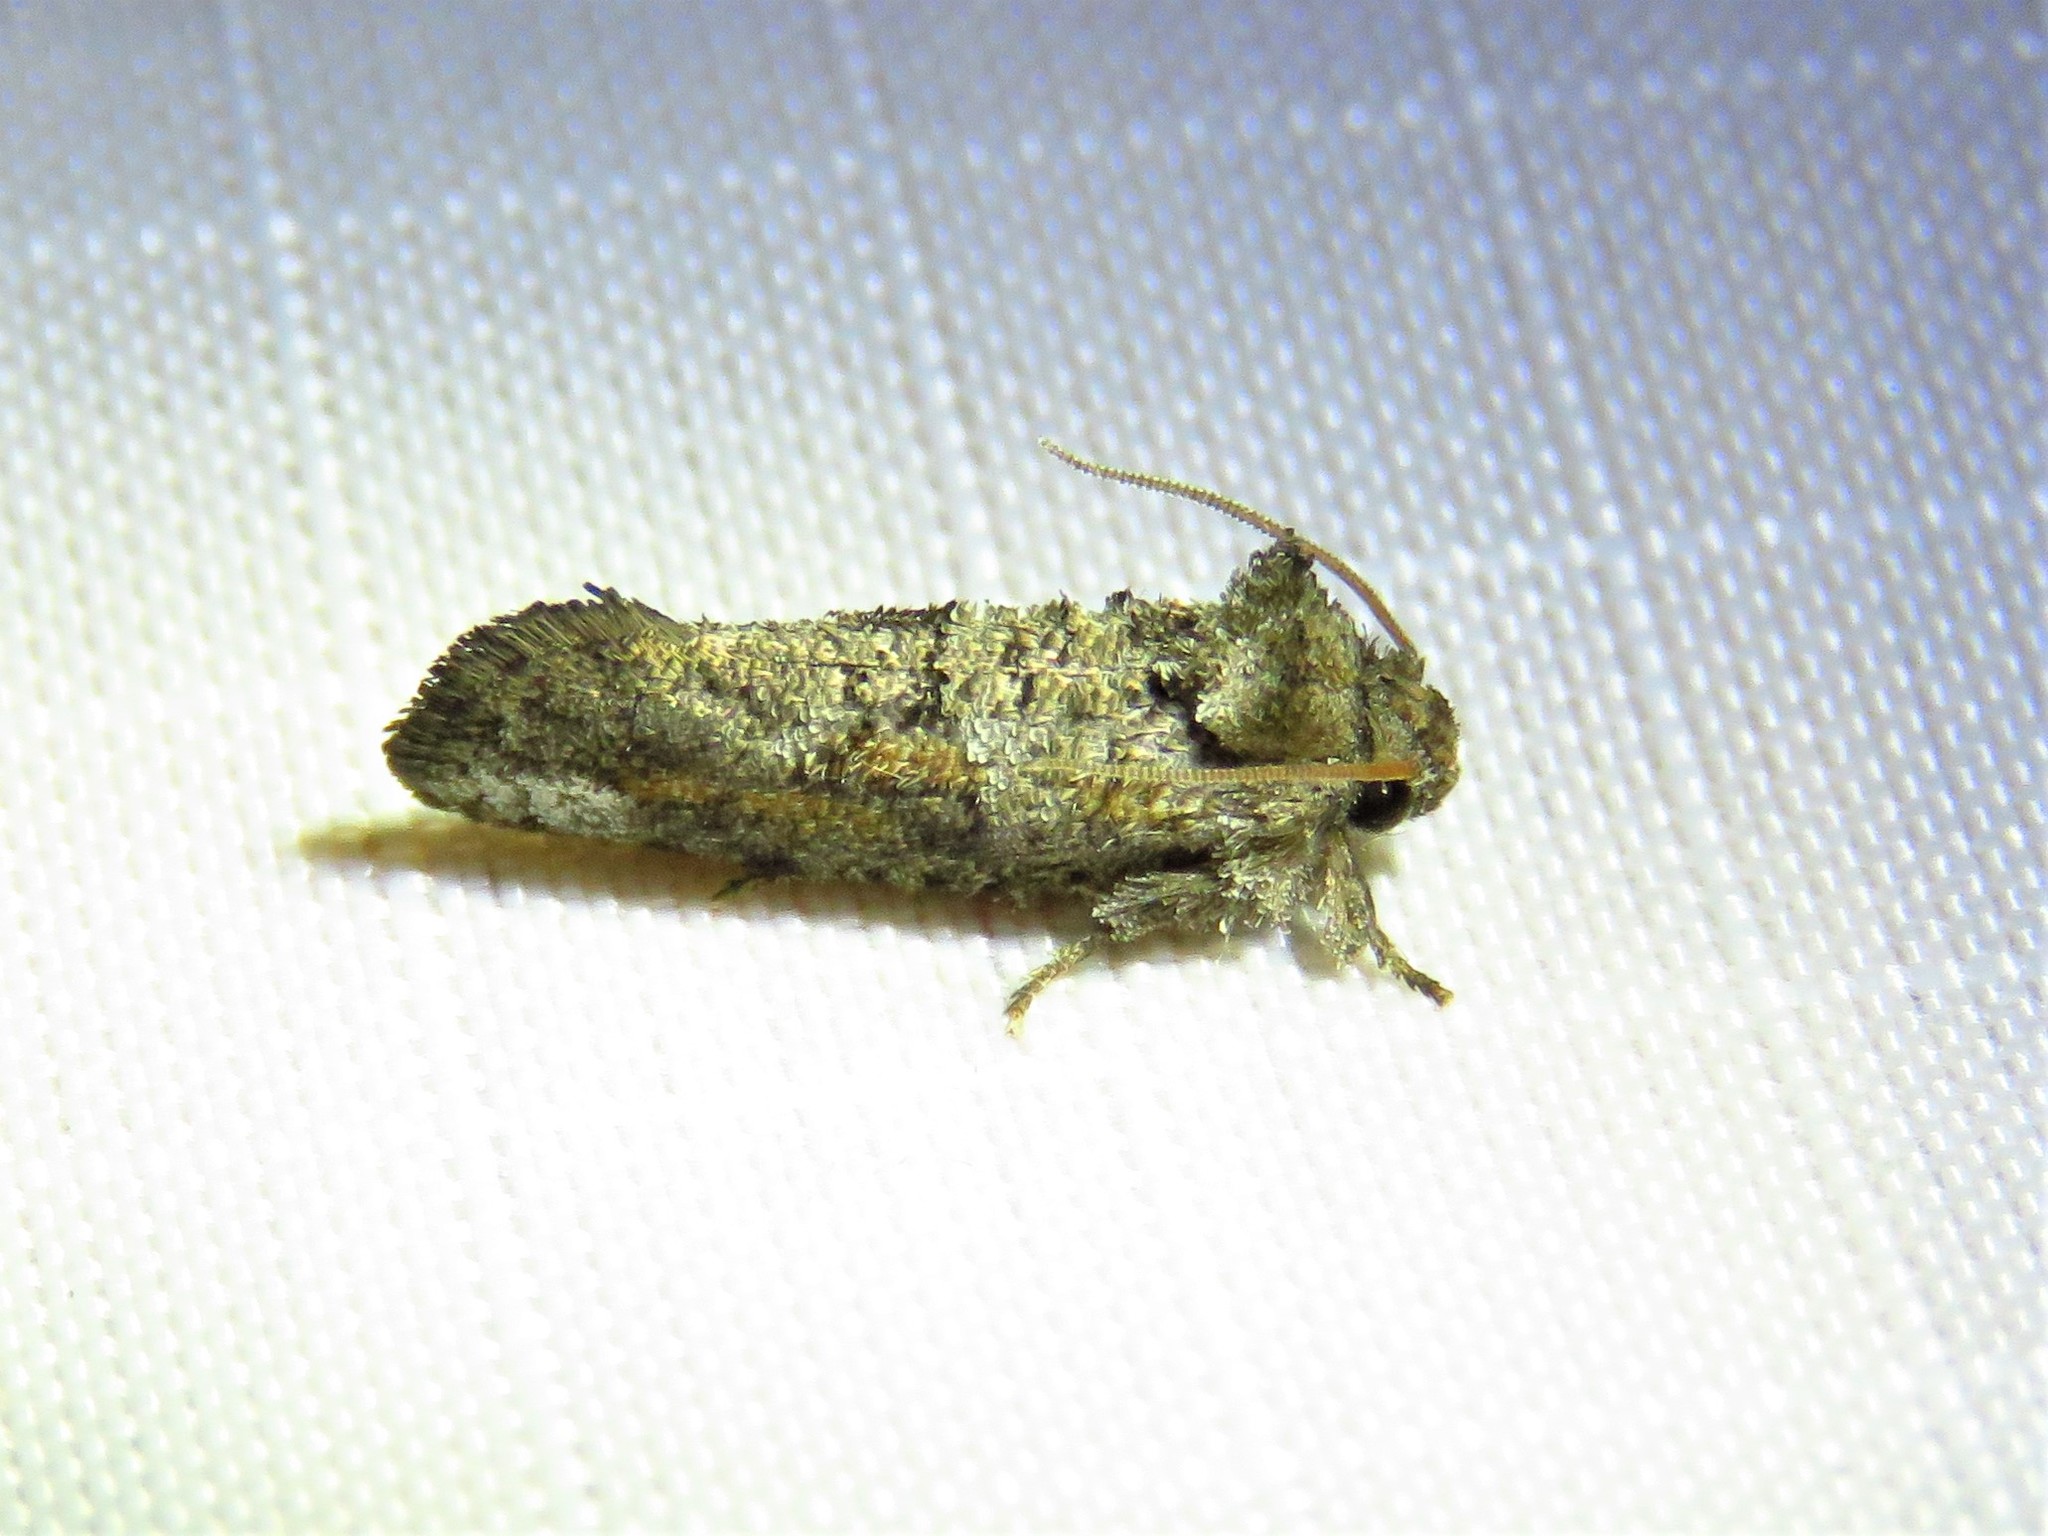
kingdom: Animalia
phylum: Arthropoda
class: Insecta
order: Lepidoptera
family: Tineidae
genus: Acrolophus
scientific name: Acrolophus piger
